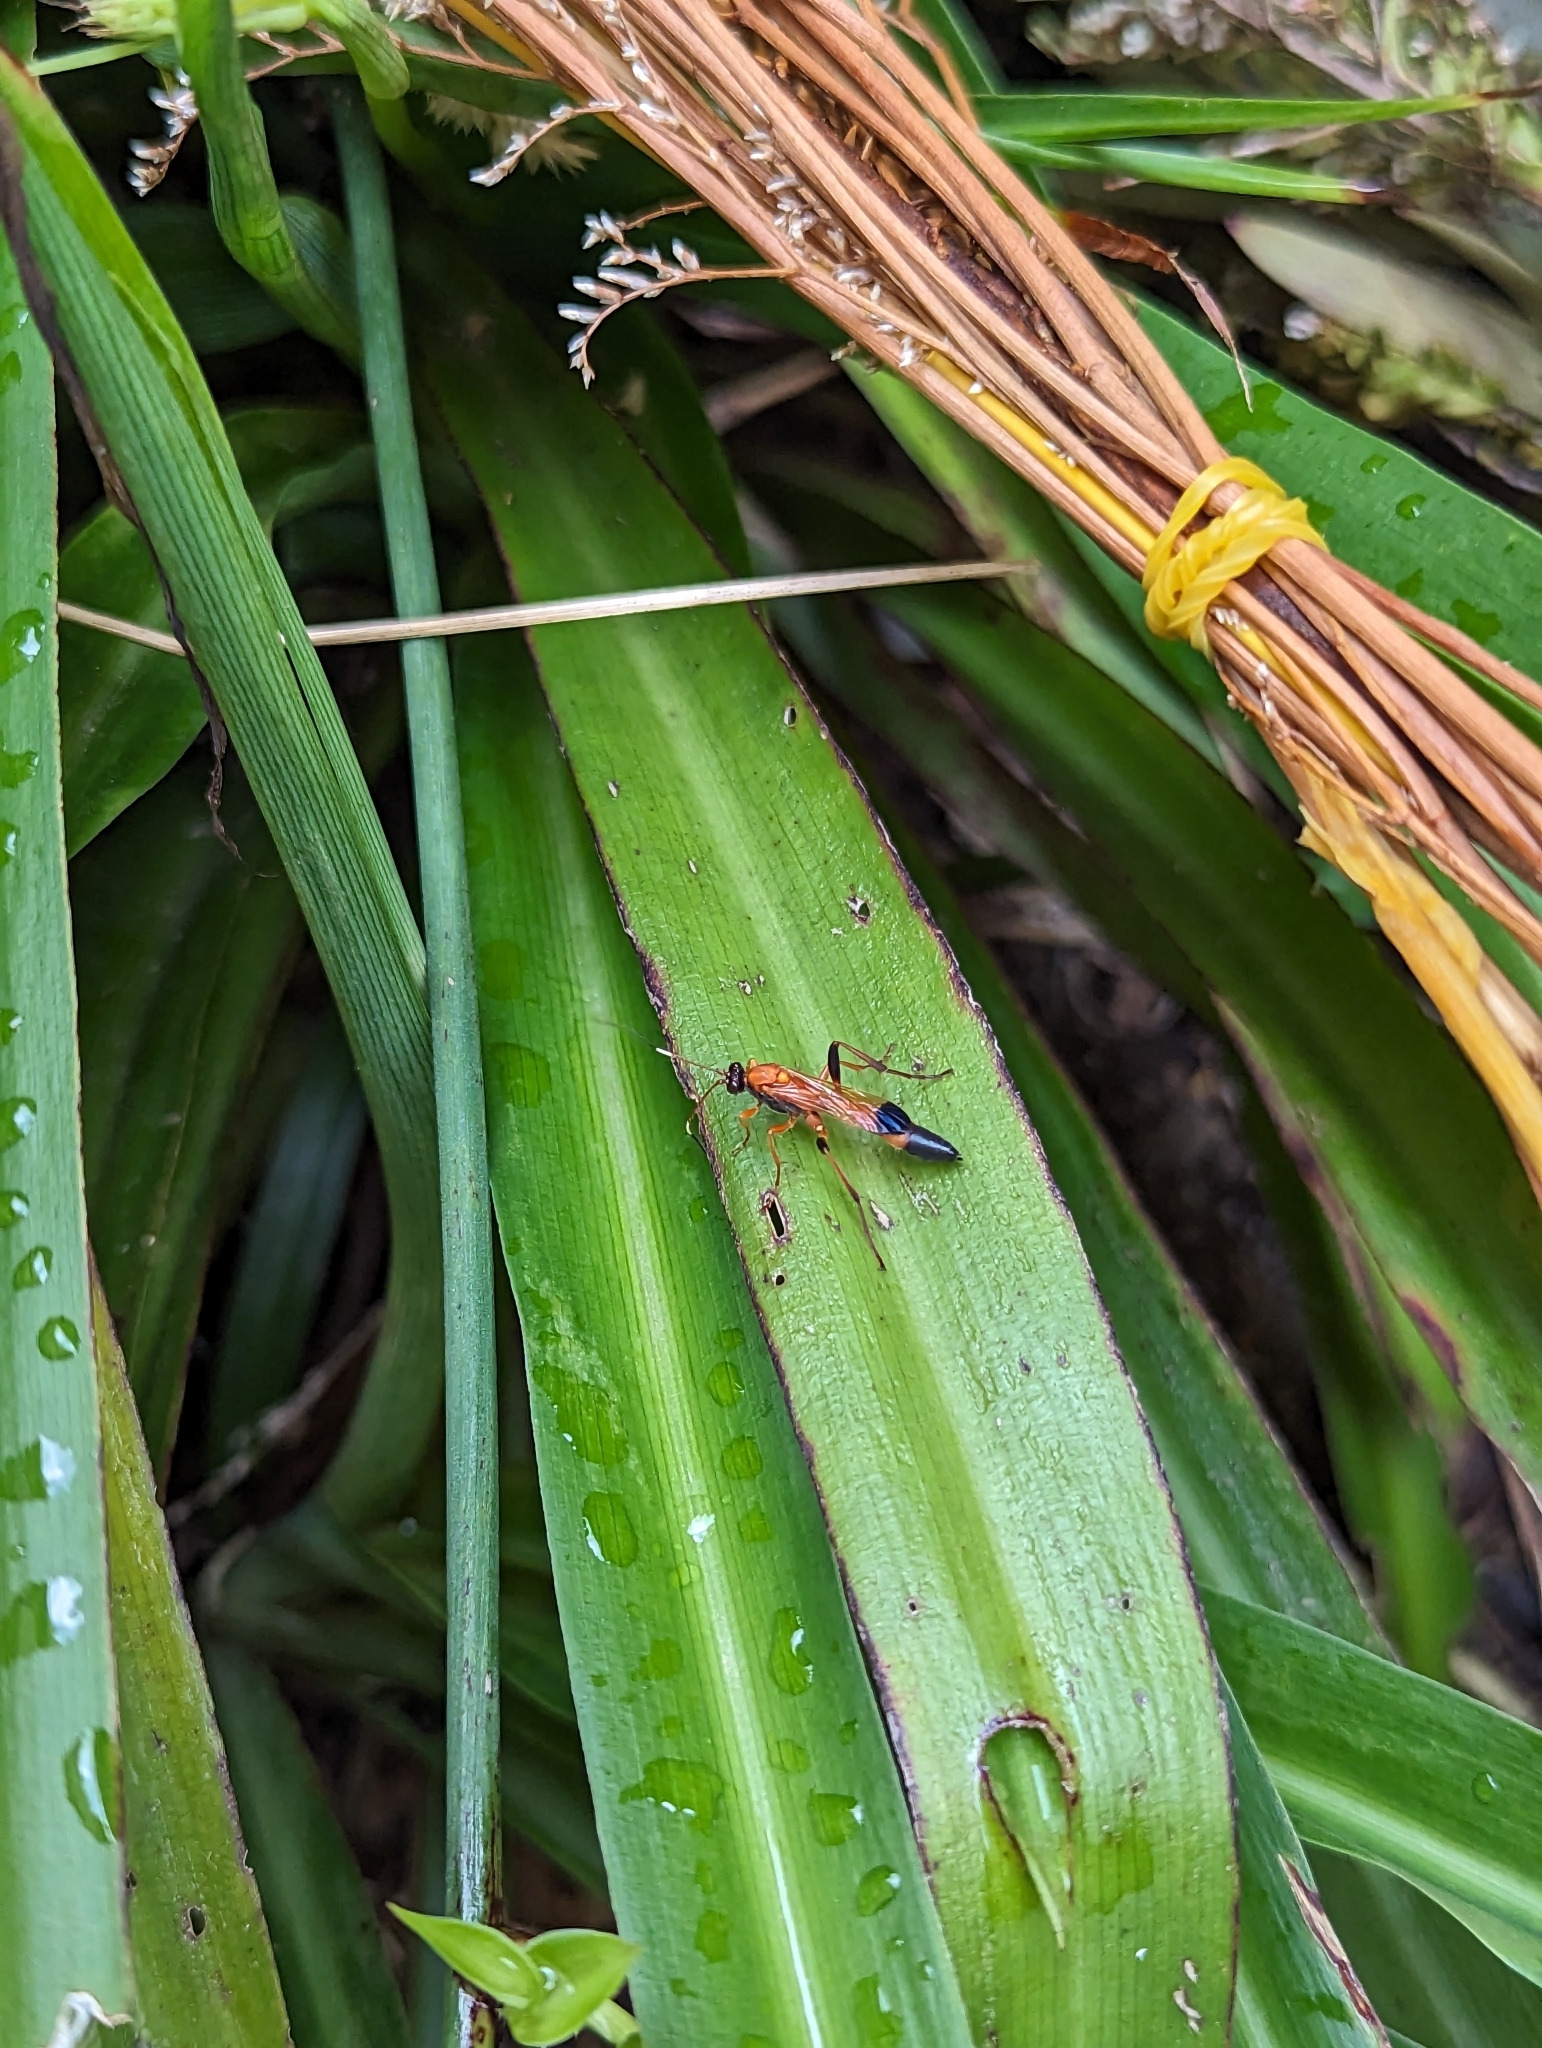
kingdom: Animalia
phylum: Arthropoda
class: Insecta
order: Hymenoptera
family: Ichneumonidae
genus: Ctenochares
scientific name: Ctenochares bicolorus
